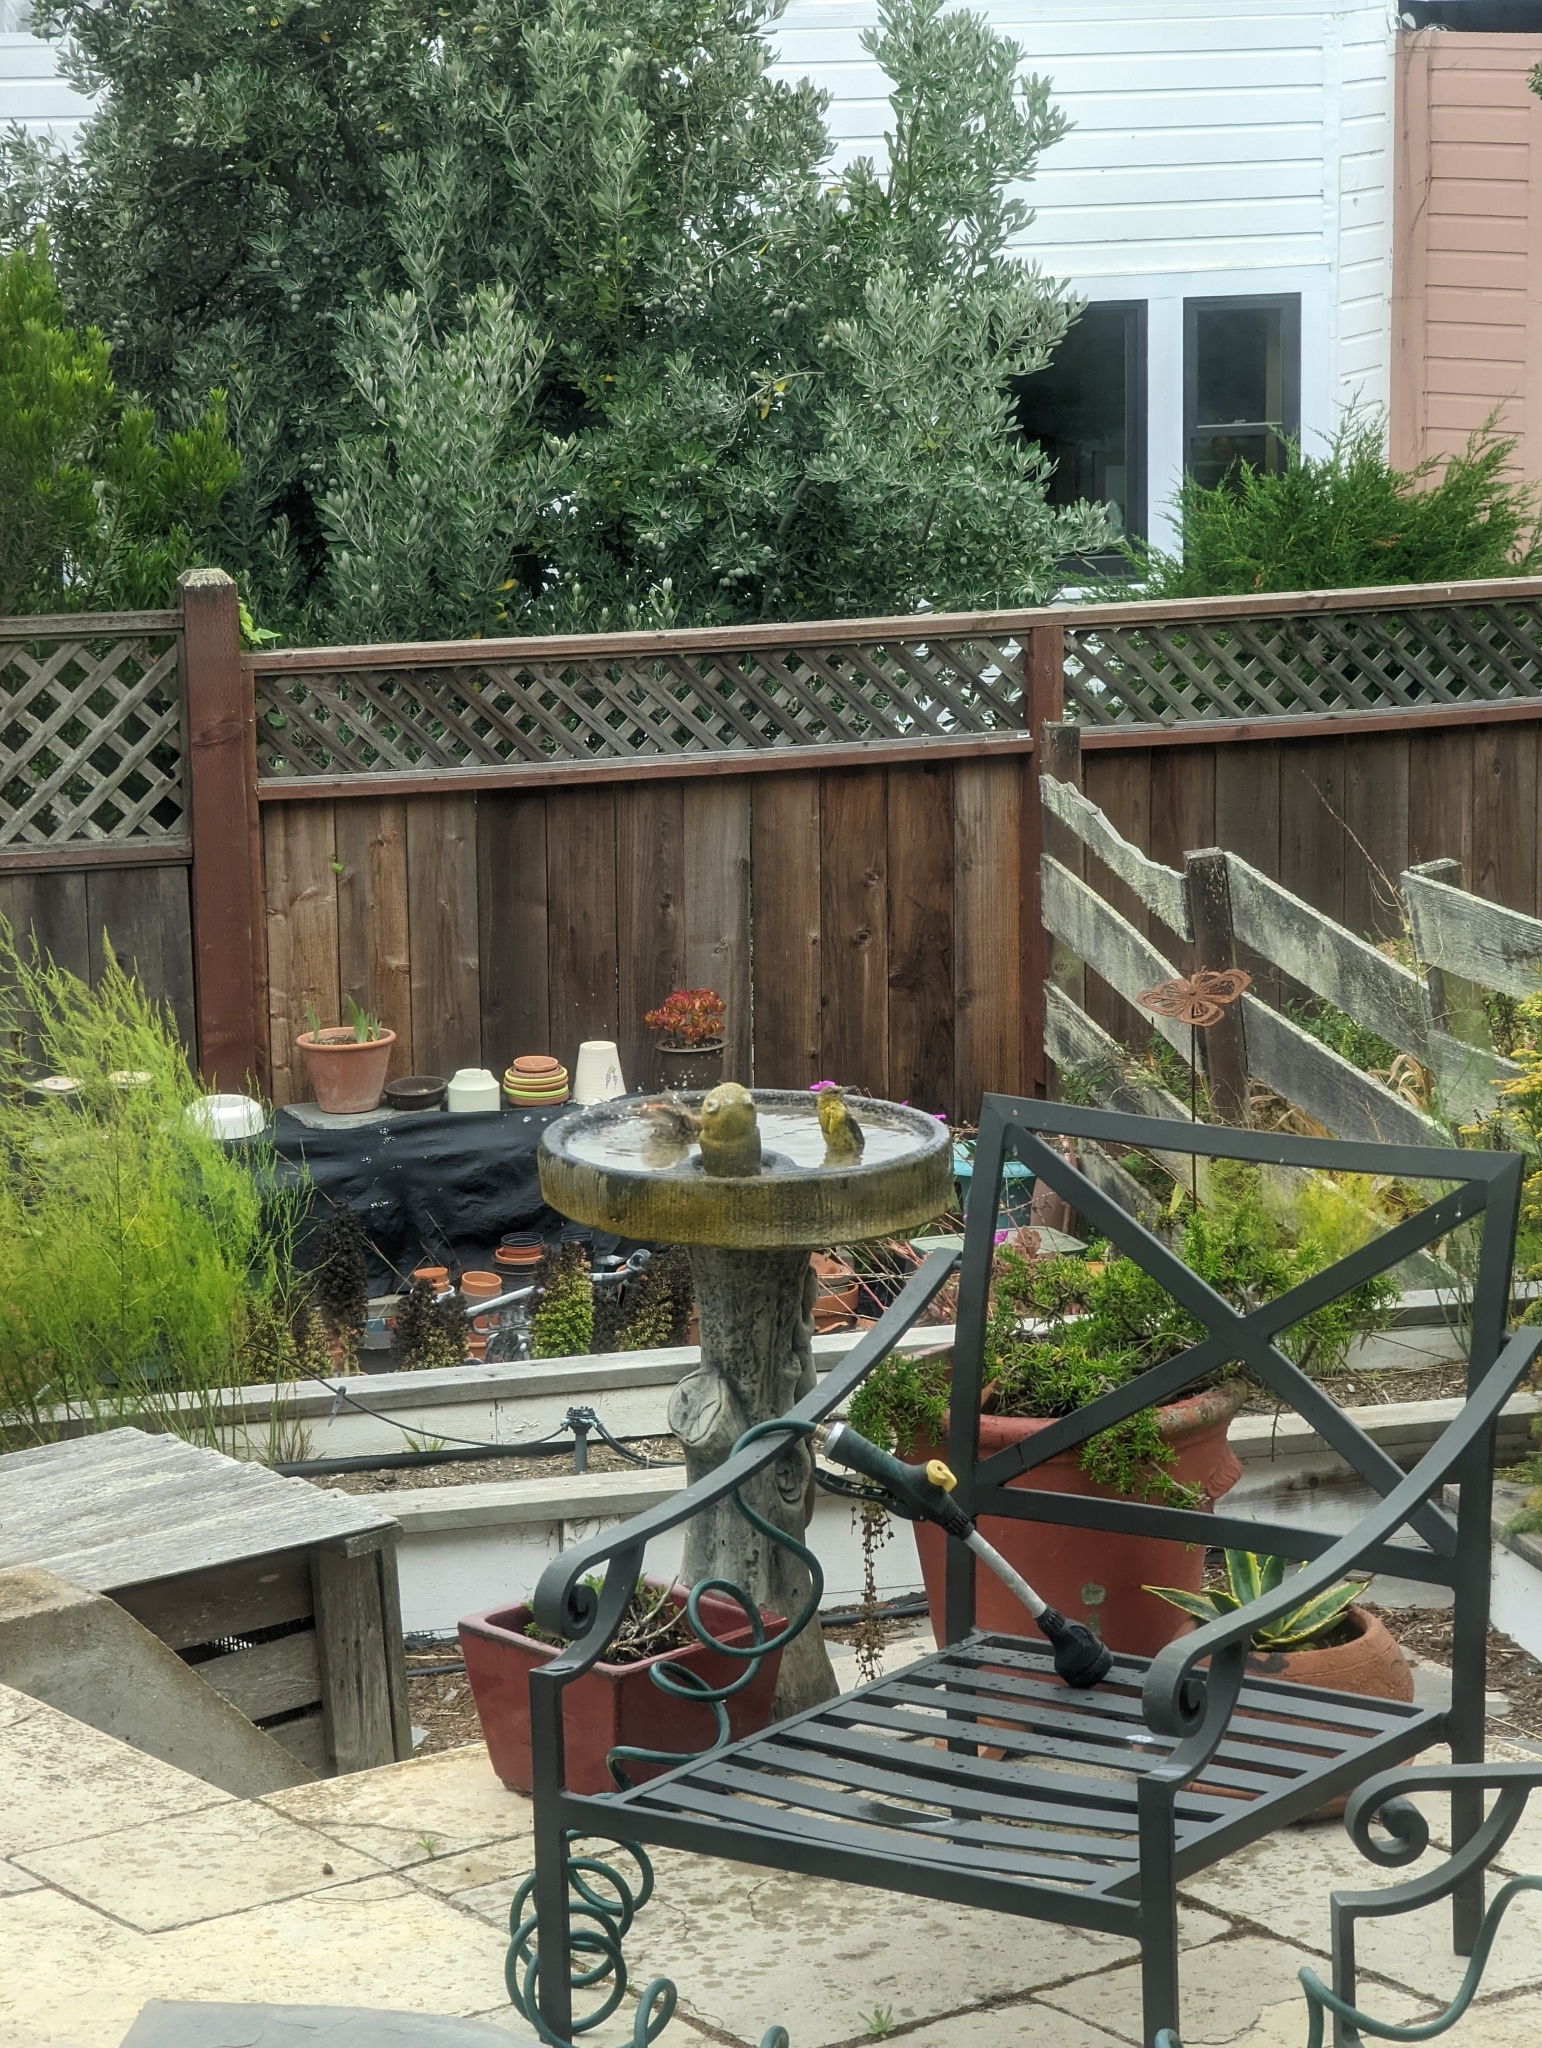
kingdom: Animalia
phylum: Chordata
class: Aves
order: Passeriformes
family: Icteridae
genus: Icterus
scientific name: Icterus cucullatus
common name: Hooded oriole
